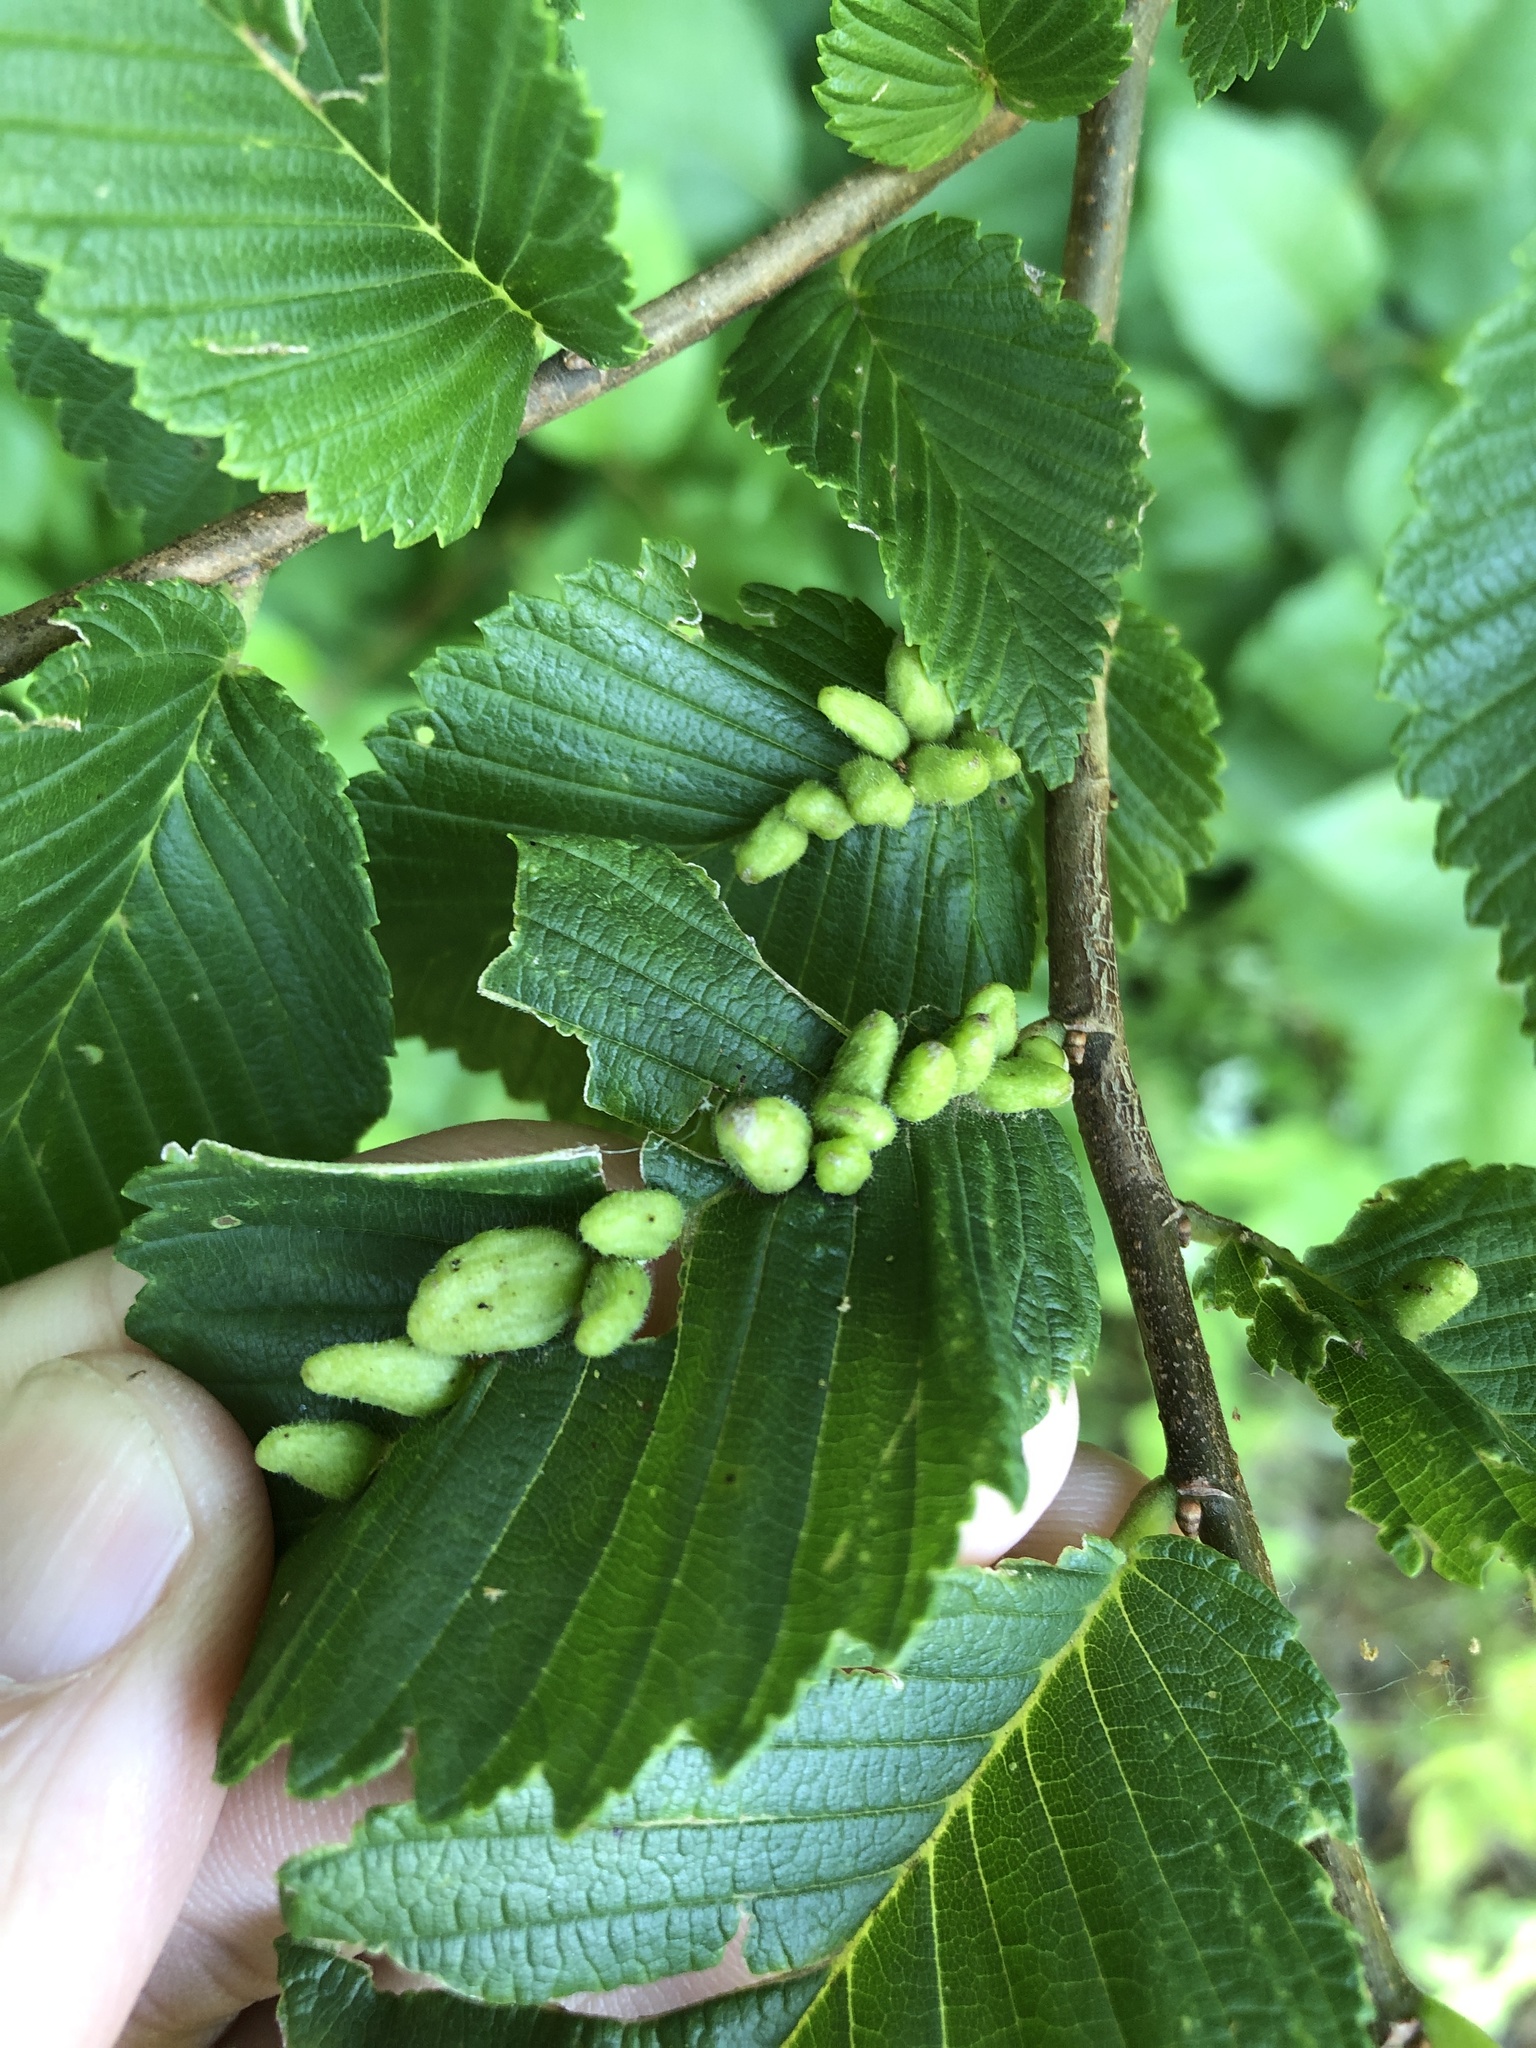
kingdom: Animalia
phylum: Arthropoda
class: Arachnida
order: Trombidiformes
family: Eriophyidae
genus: Aceria
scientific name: Aceria
